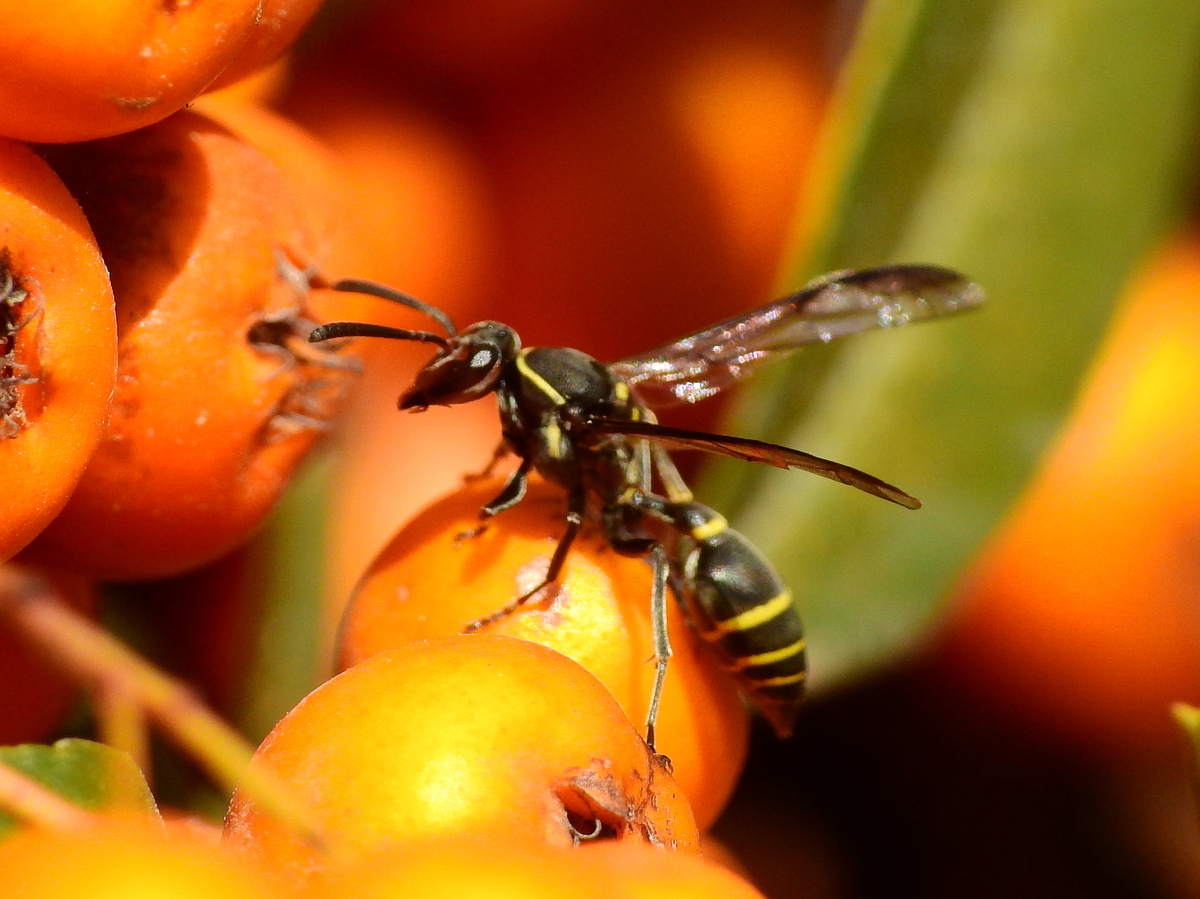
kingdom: Animalia
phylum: Arthropoda
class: Insecta
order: Hymenoptera
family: Eumenidae
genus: Polybia
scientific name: Polybia ruficeps
